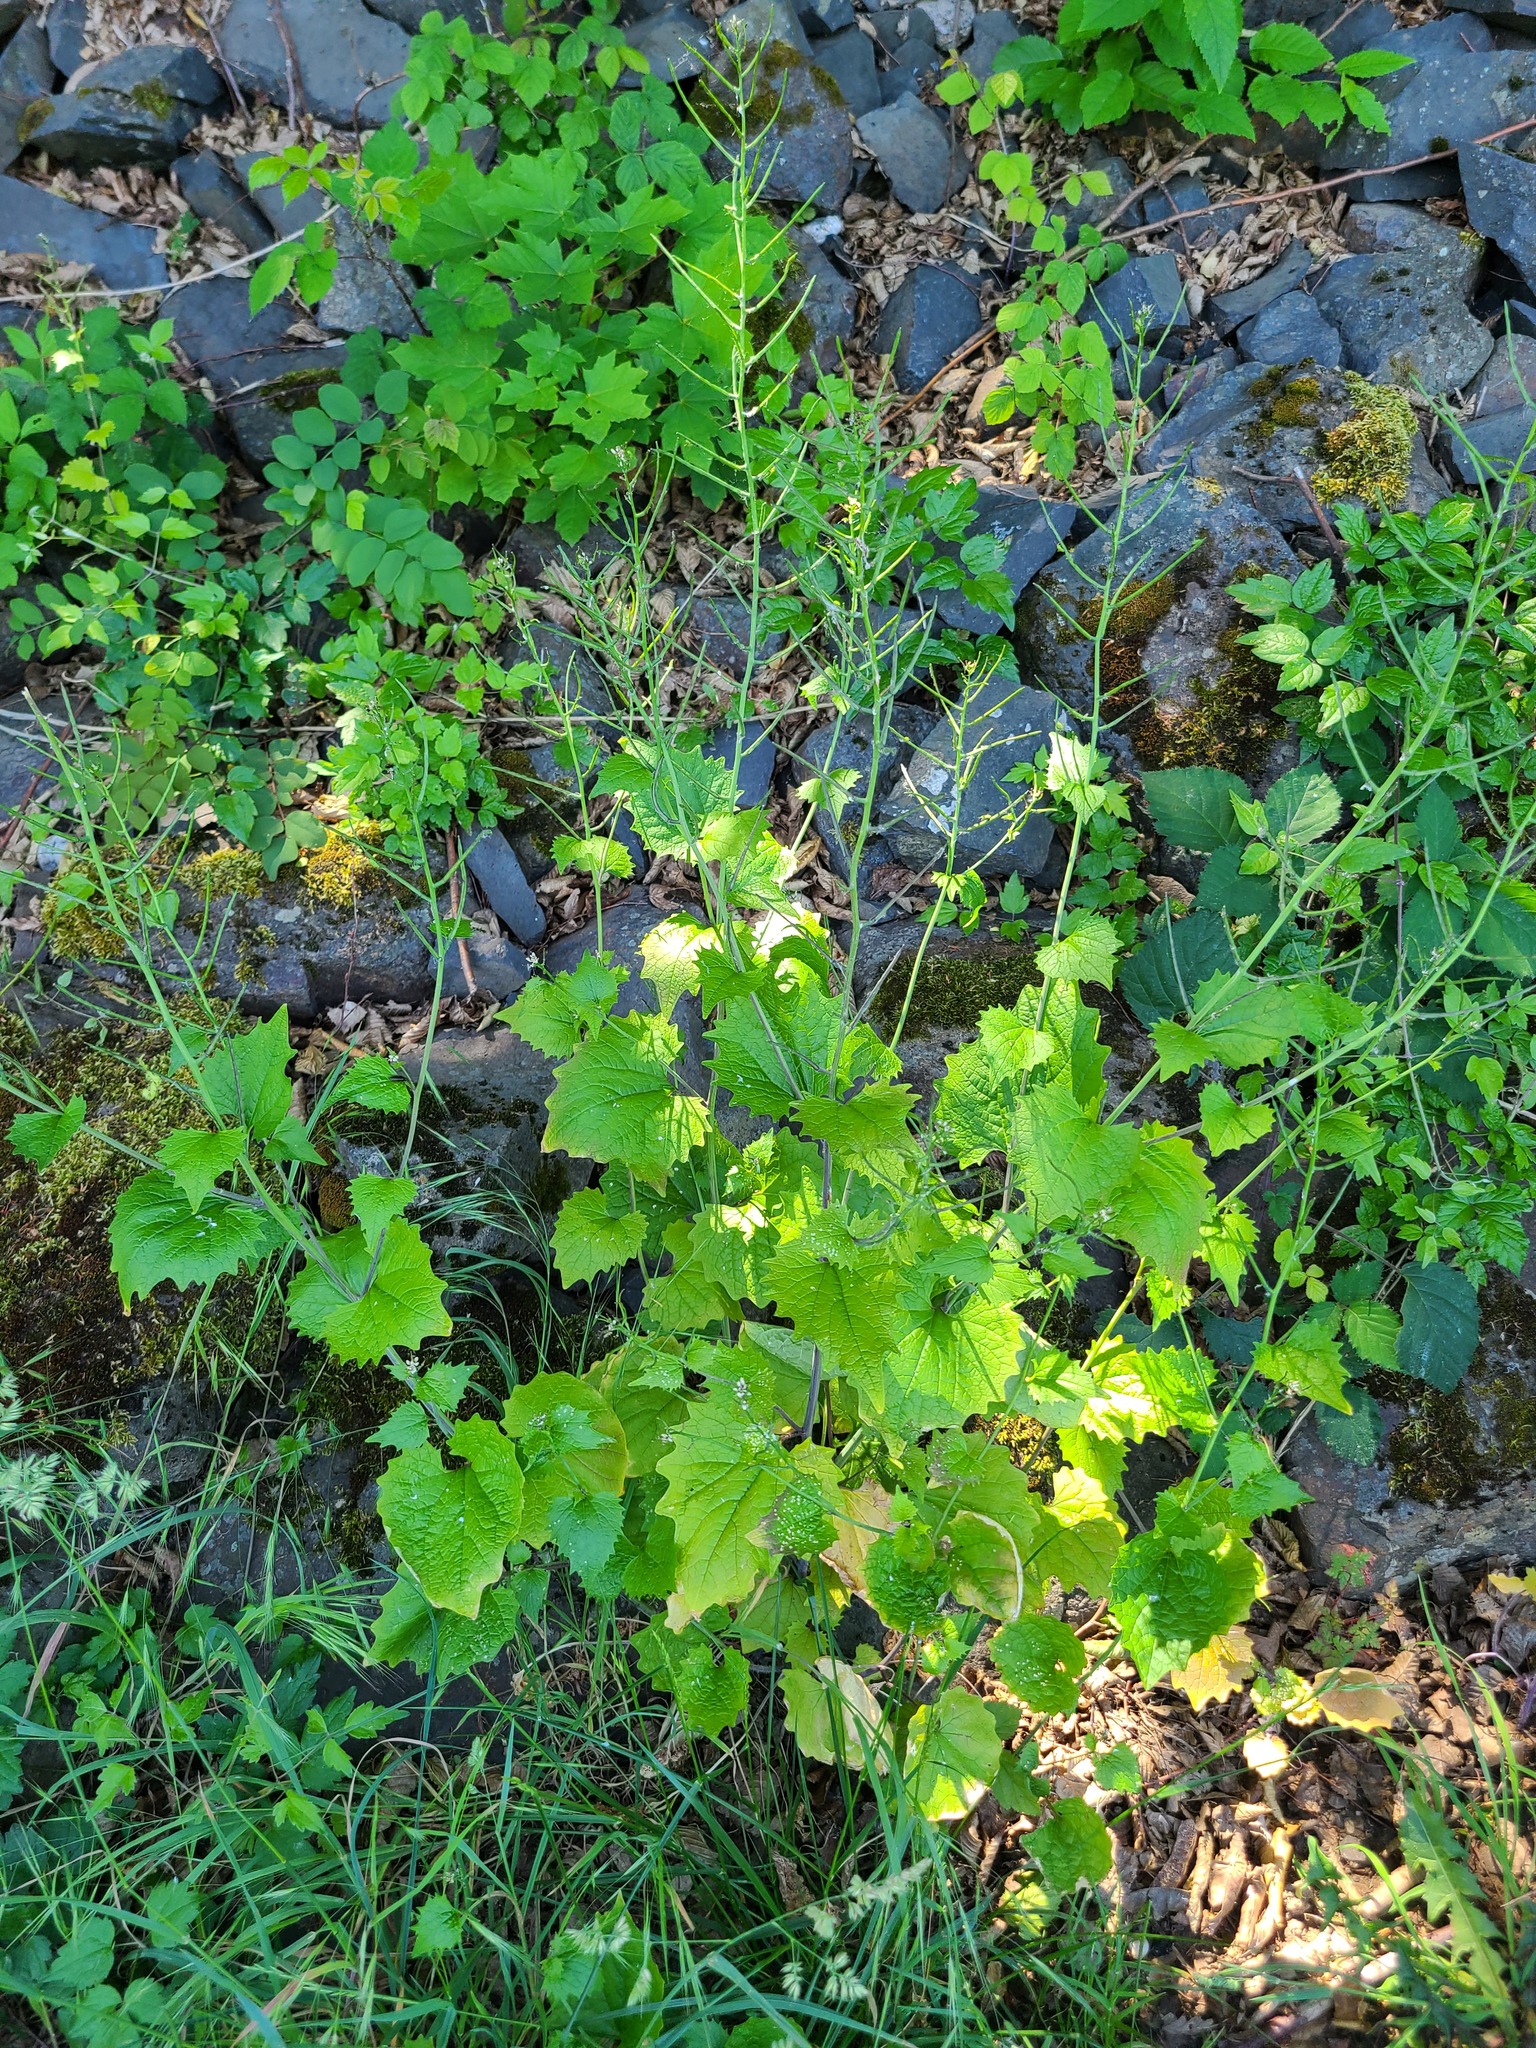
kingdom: Plantae
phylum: Tracheophyta
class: Magnoliopsida
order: Brassicales
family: Brassicaceae
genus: Alliaria
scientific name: Alliaria petiolata
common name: Garlic mustard
